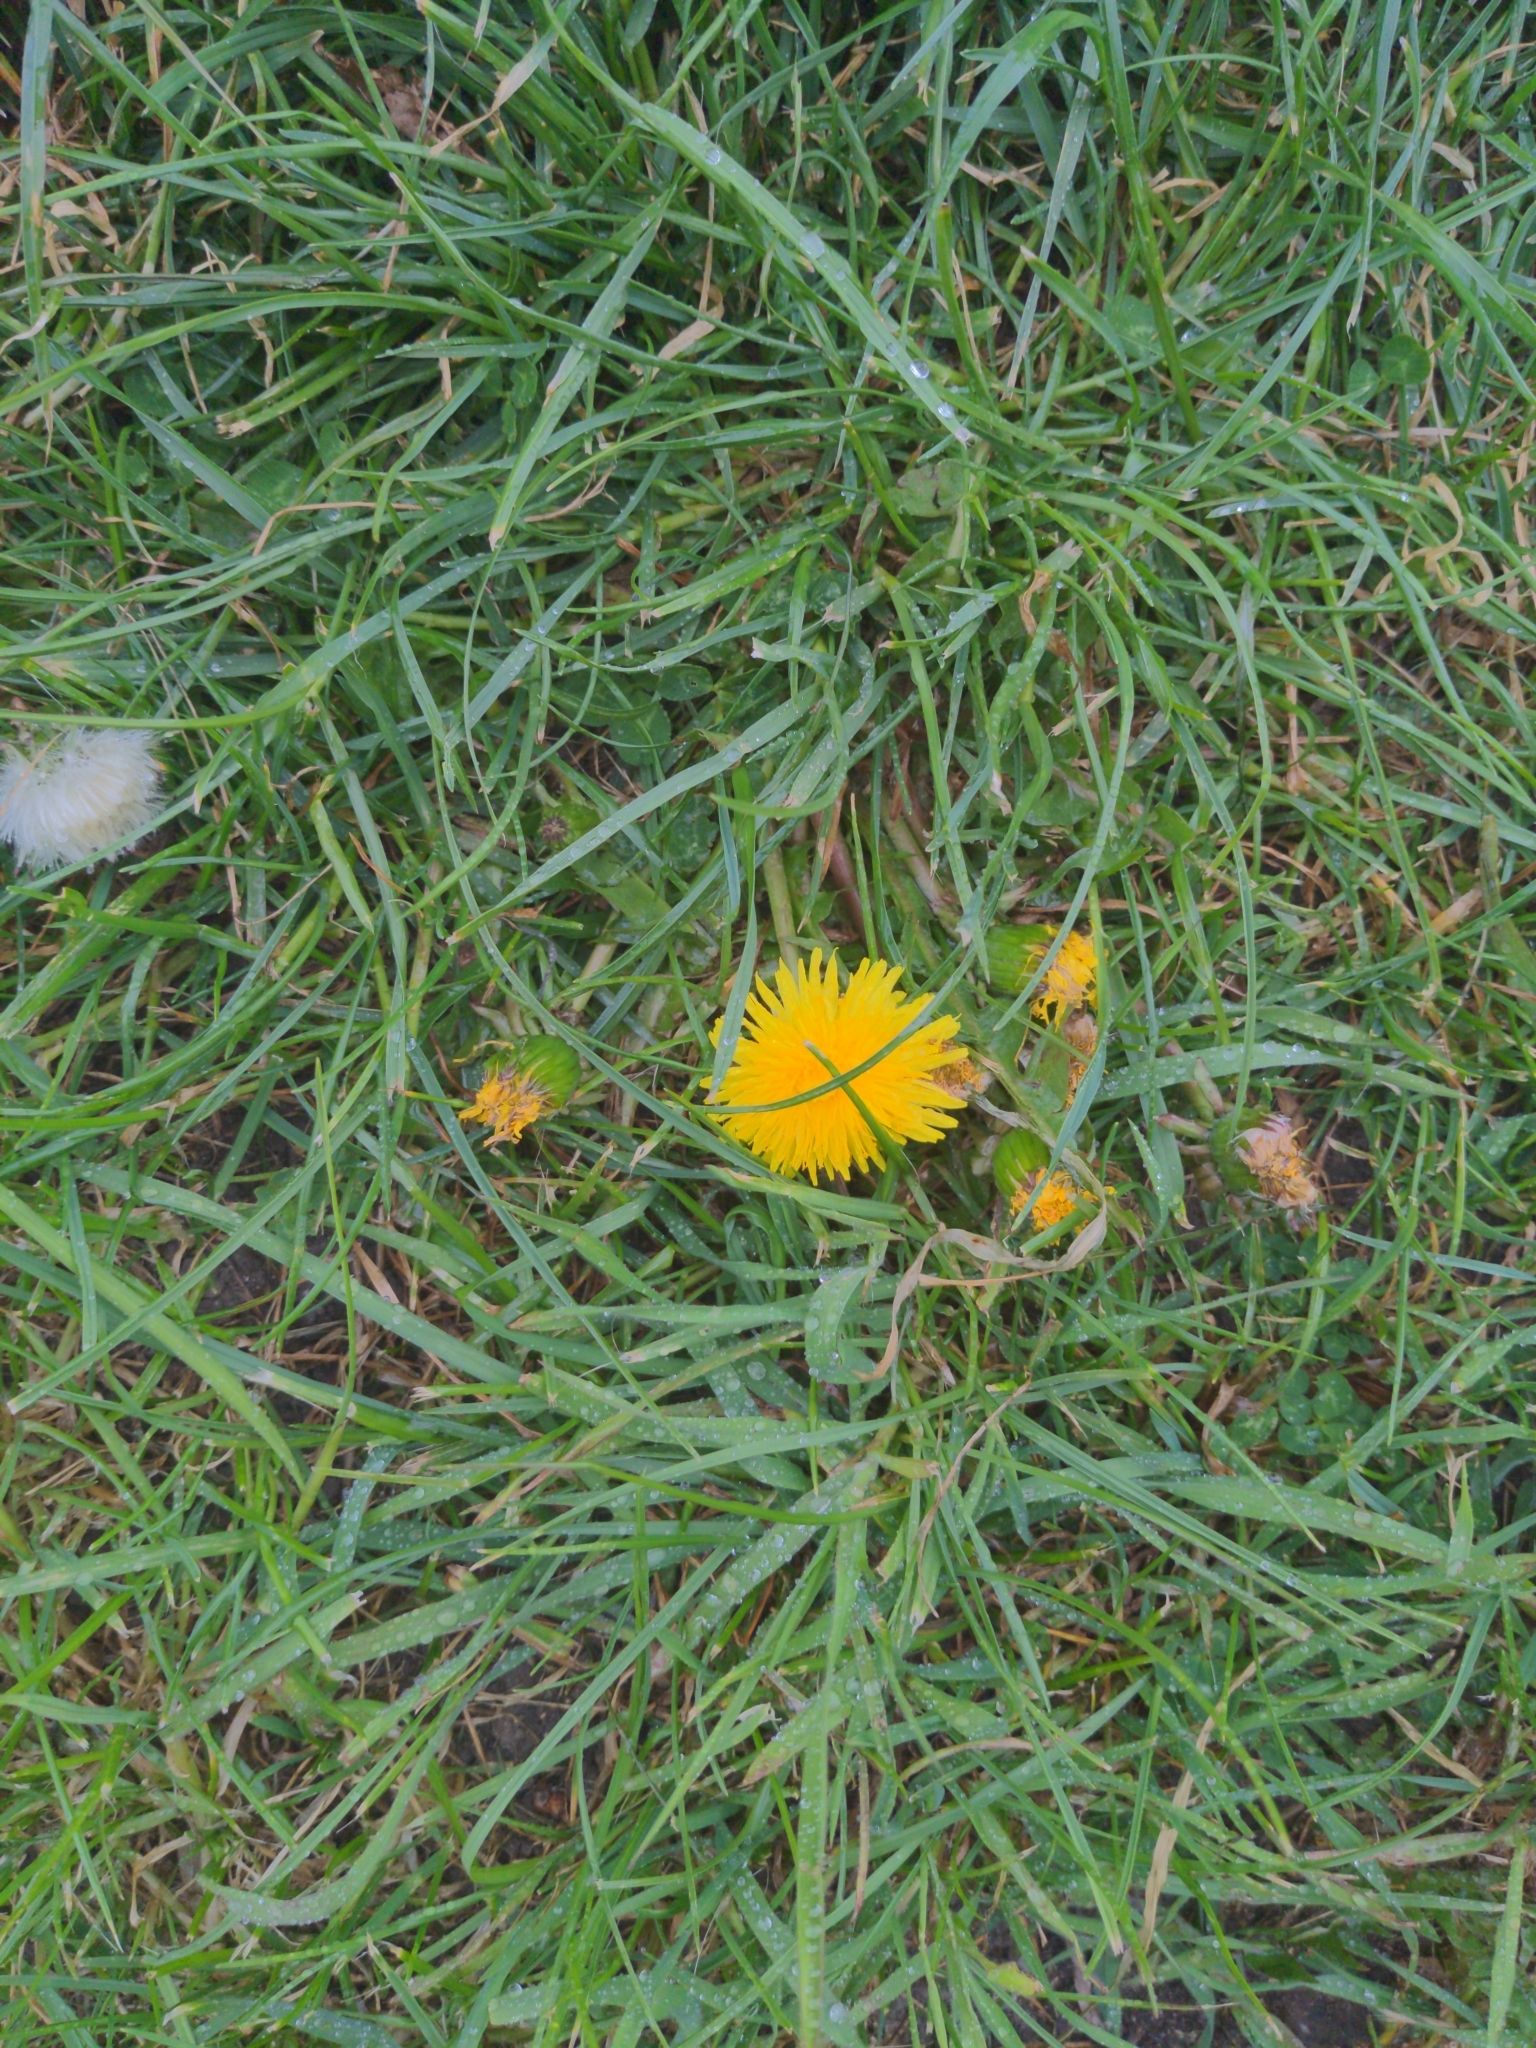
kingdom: Plantae
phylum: Tracheophyta
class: Magnoliopsida
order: Asterales
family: Asteraceae
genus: Taraxacum
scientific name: Taraxacum officinale
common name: Common dandelion
